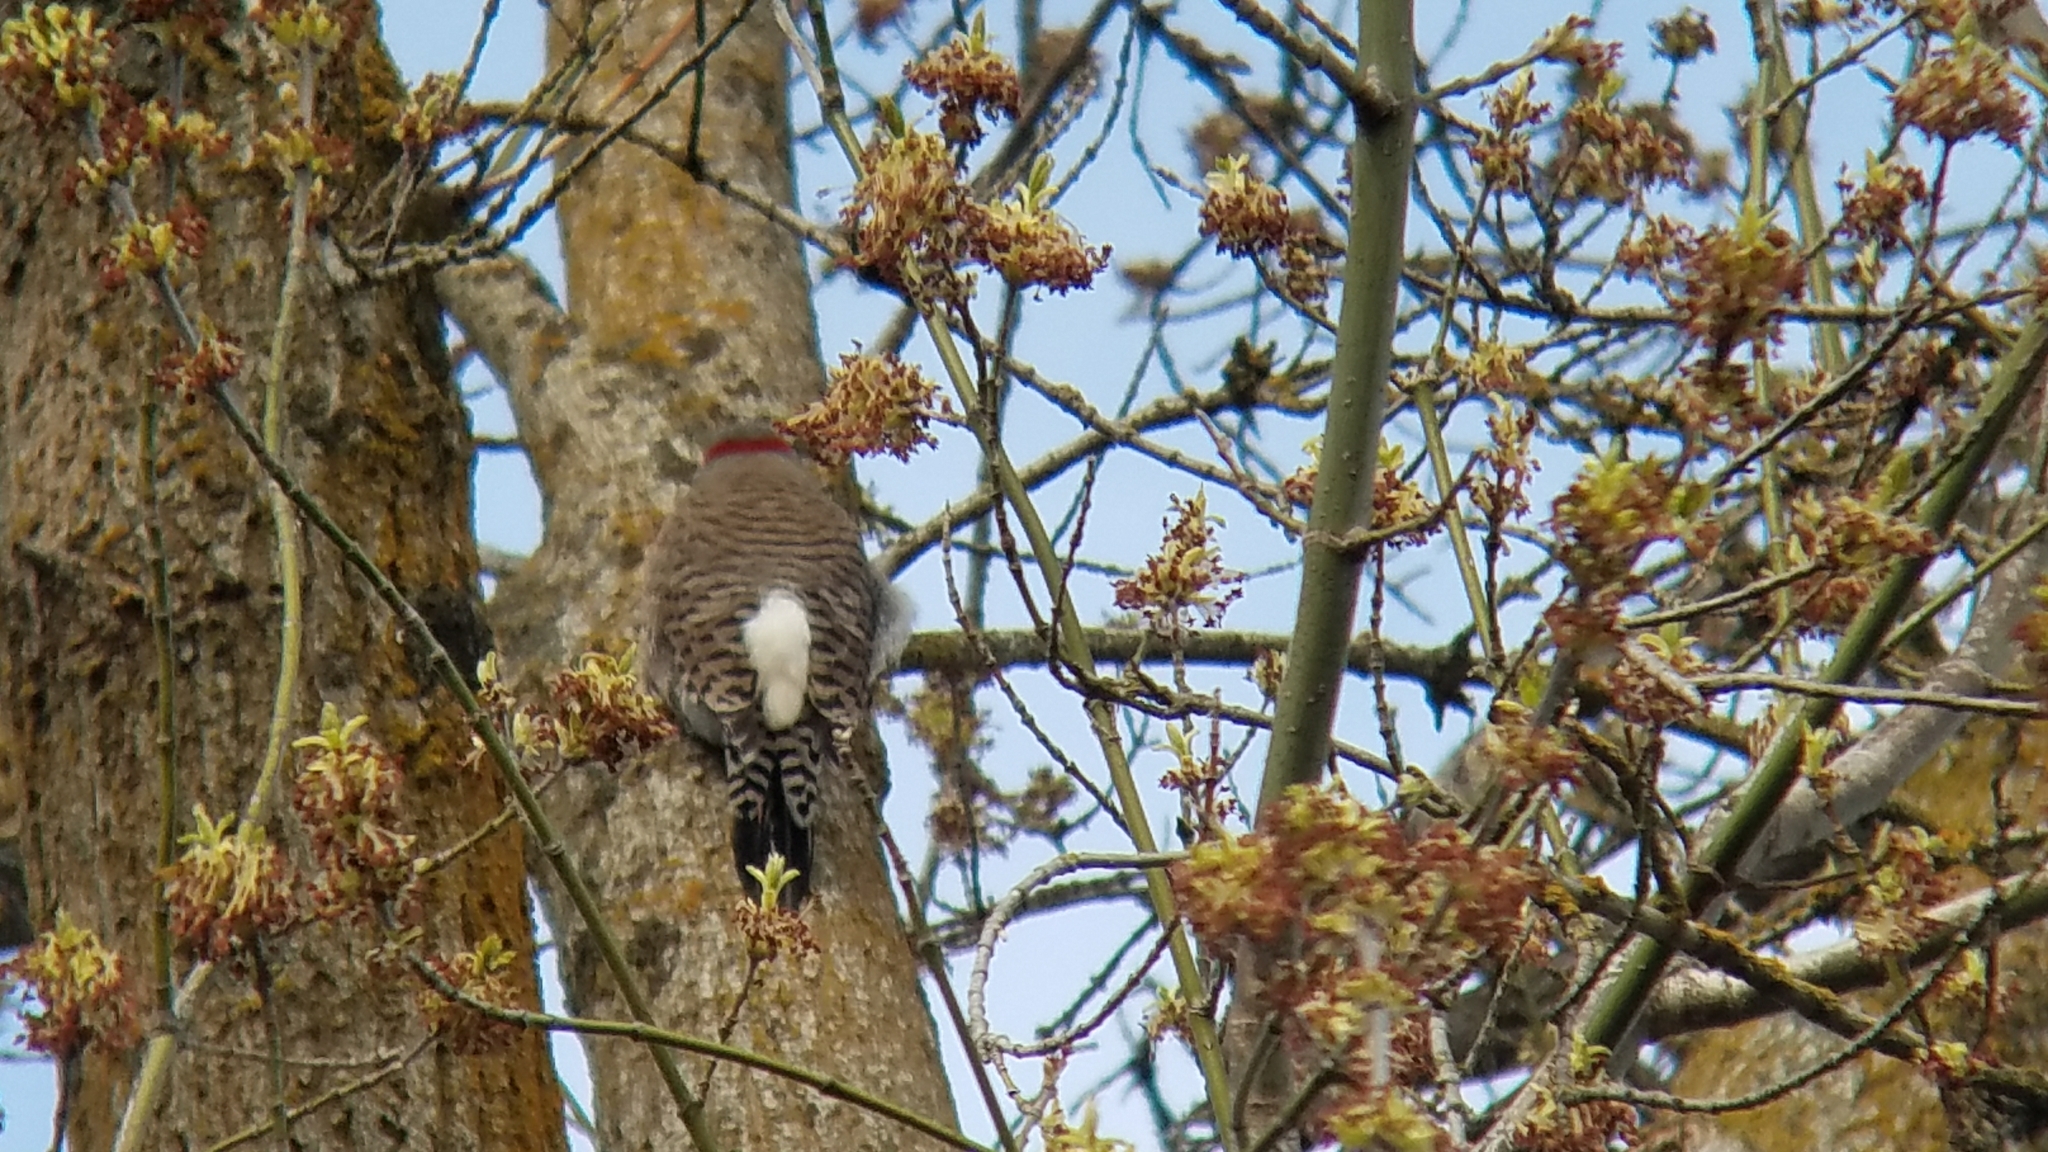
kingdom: Animalia
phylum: Chordata
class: Aves
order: Piciformes
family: Picidae
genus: Colaptes
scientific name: Colaptes
